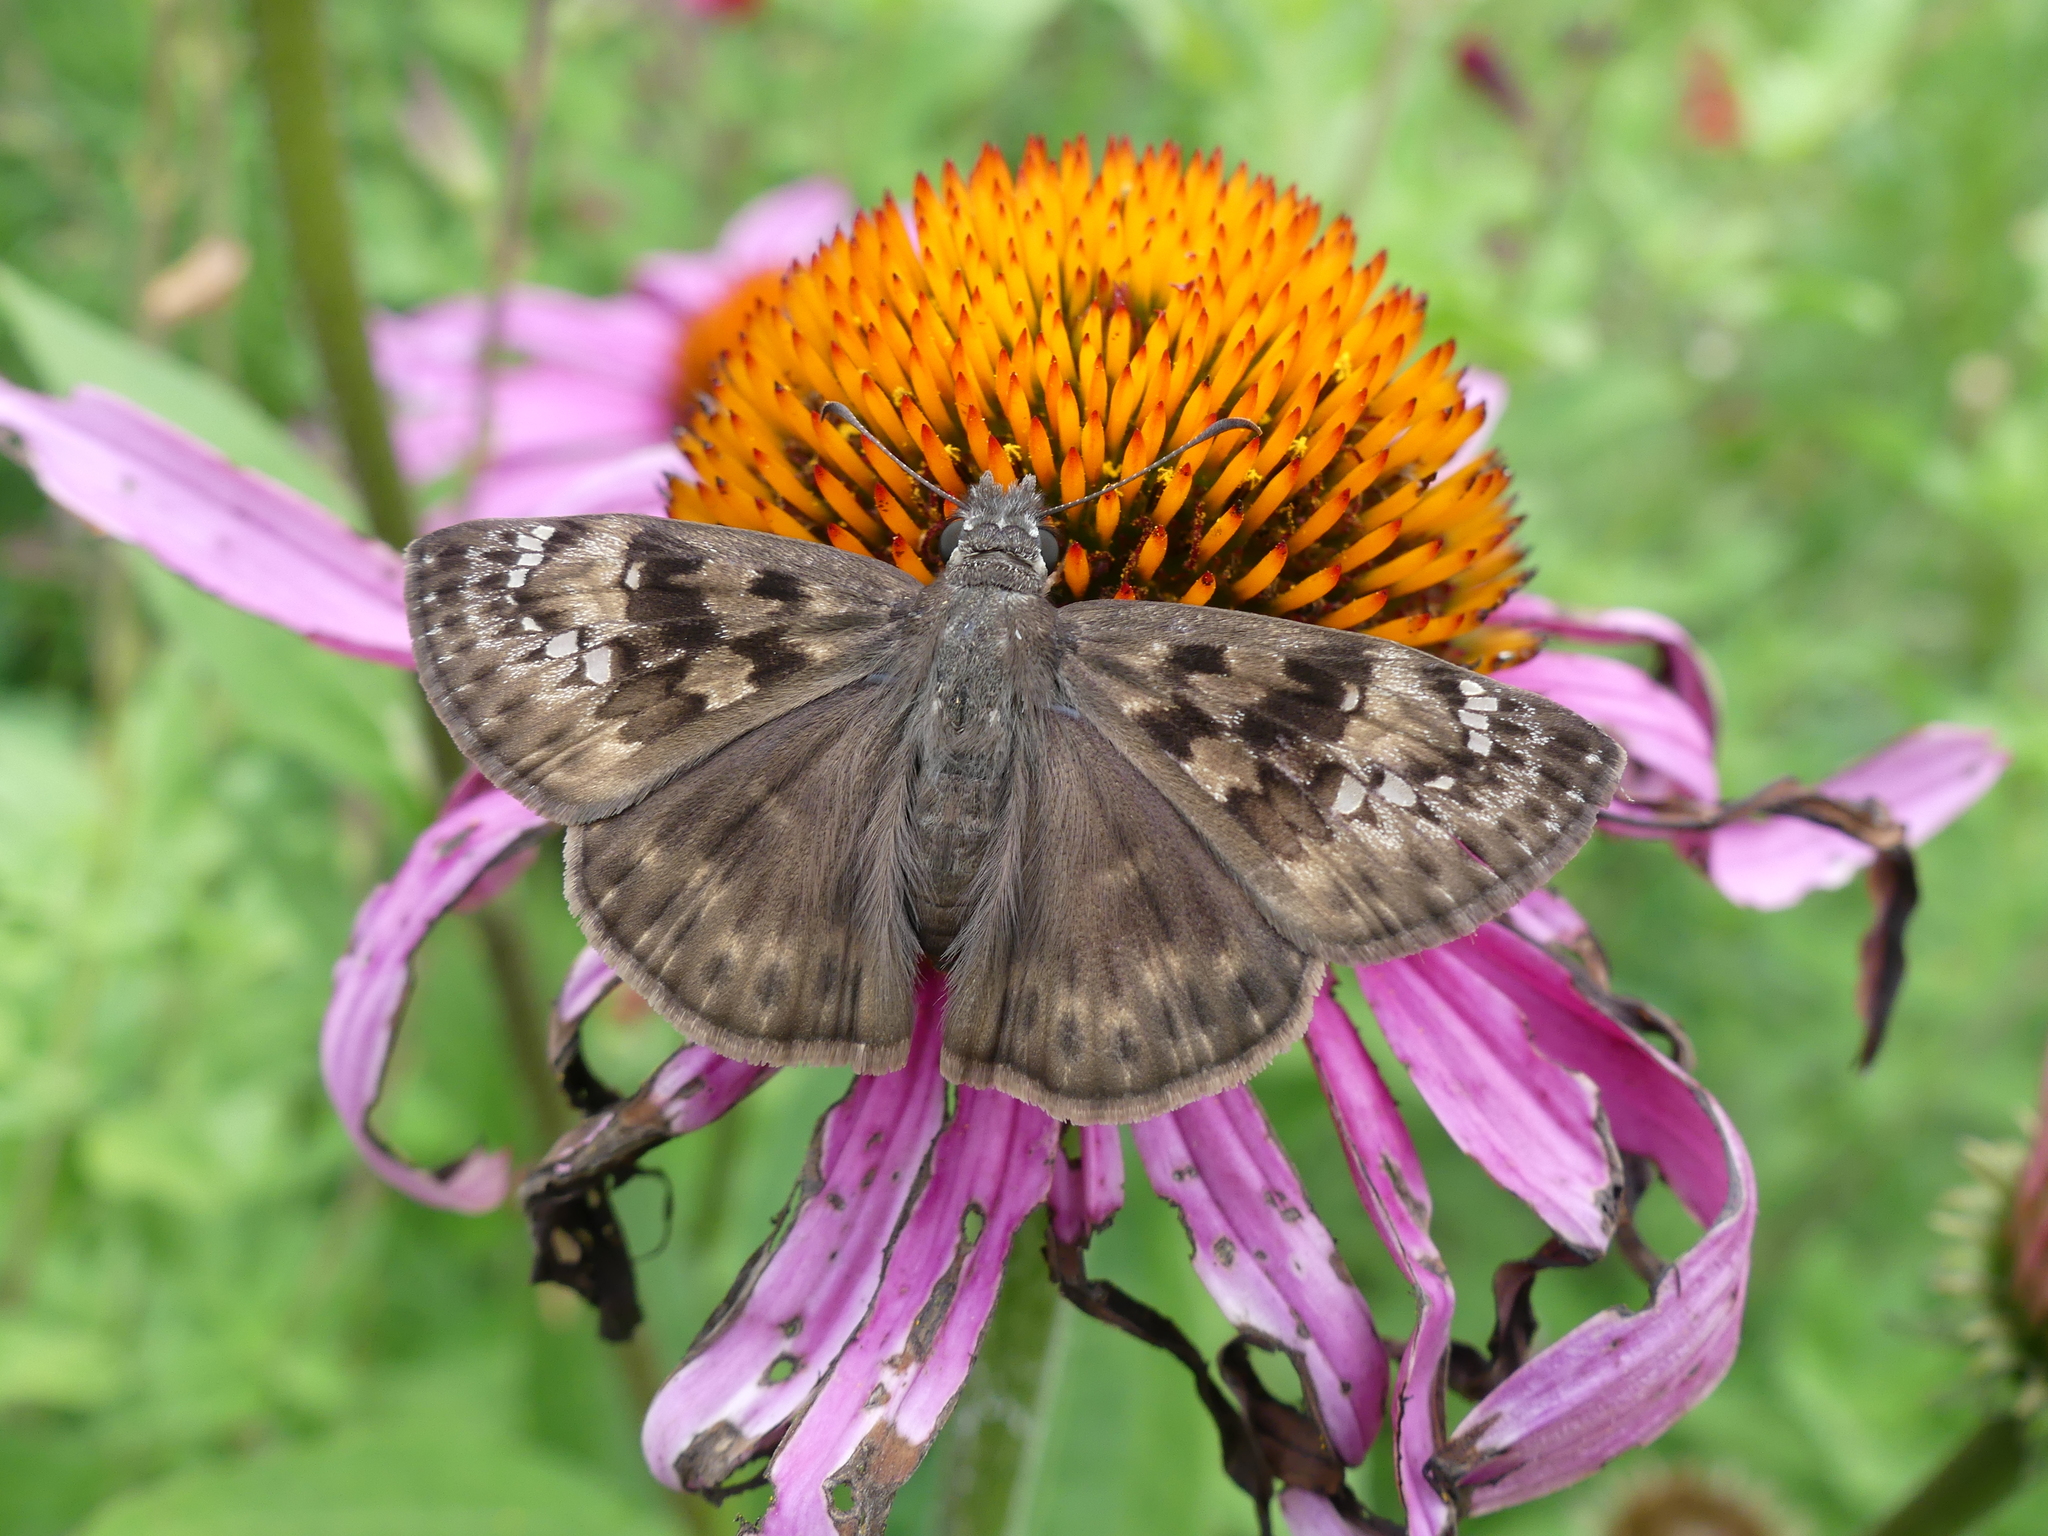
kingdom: Animalia
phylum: Arthropoda
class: Insecta
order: Lepidoptera
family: Hesperiidae
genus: Erynnis
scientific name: Erynnis horatius
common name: Horace's duskywing
